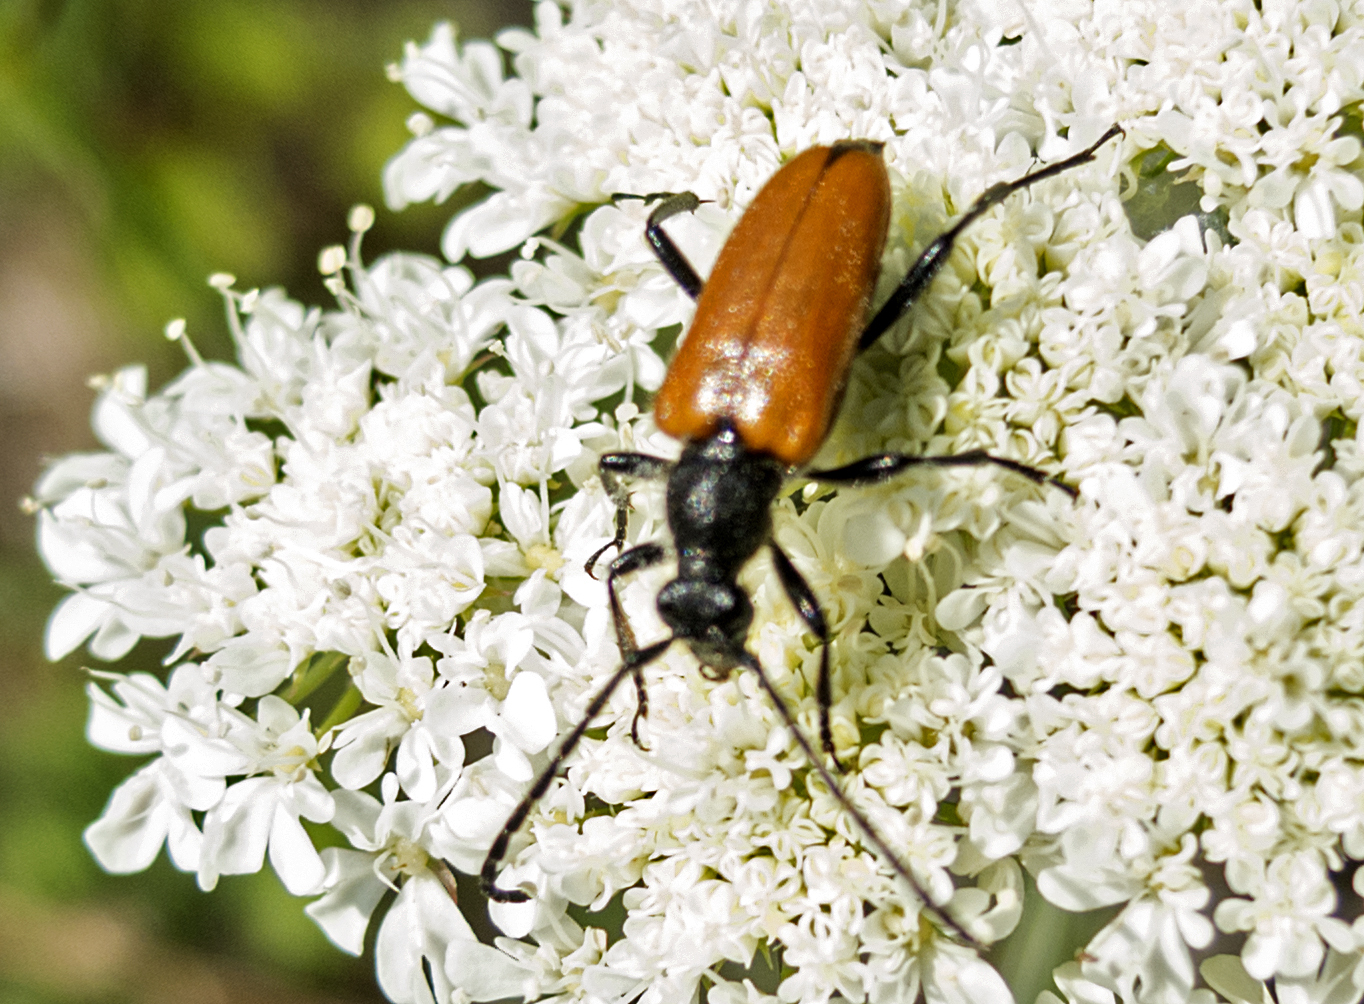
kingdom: Animalia
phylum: Arthropoda
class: Insecta
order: Coleoptera
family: Cerambycidae
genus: Paracorymbia
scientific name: Paracorymbia pallens
